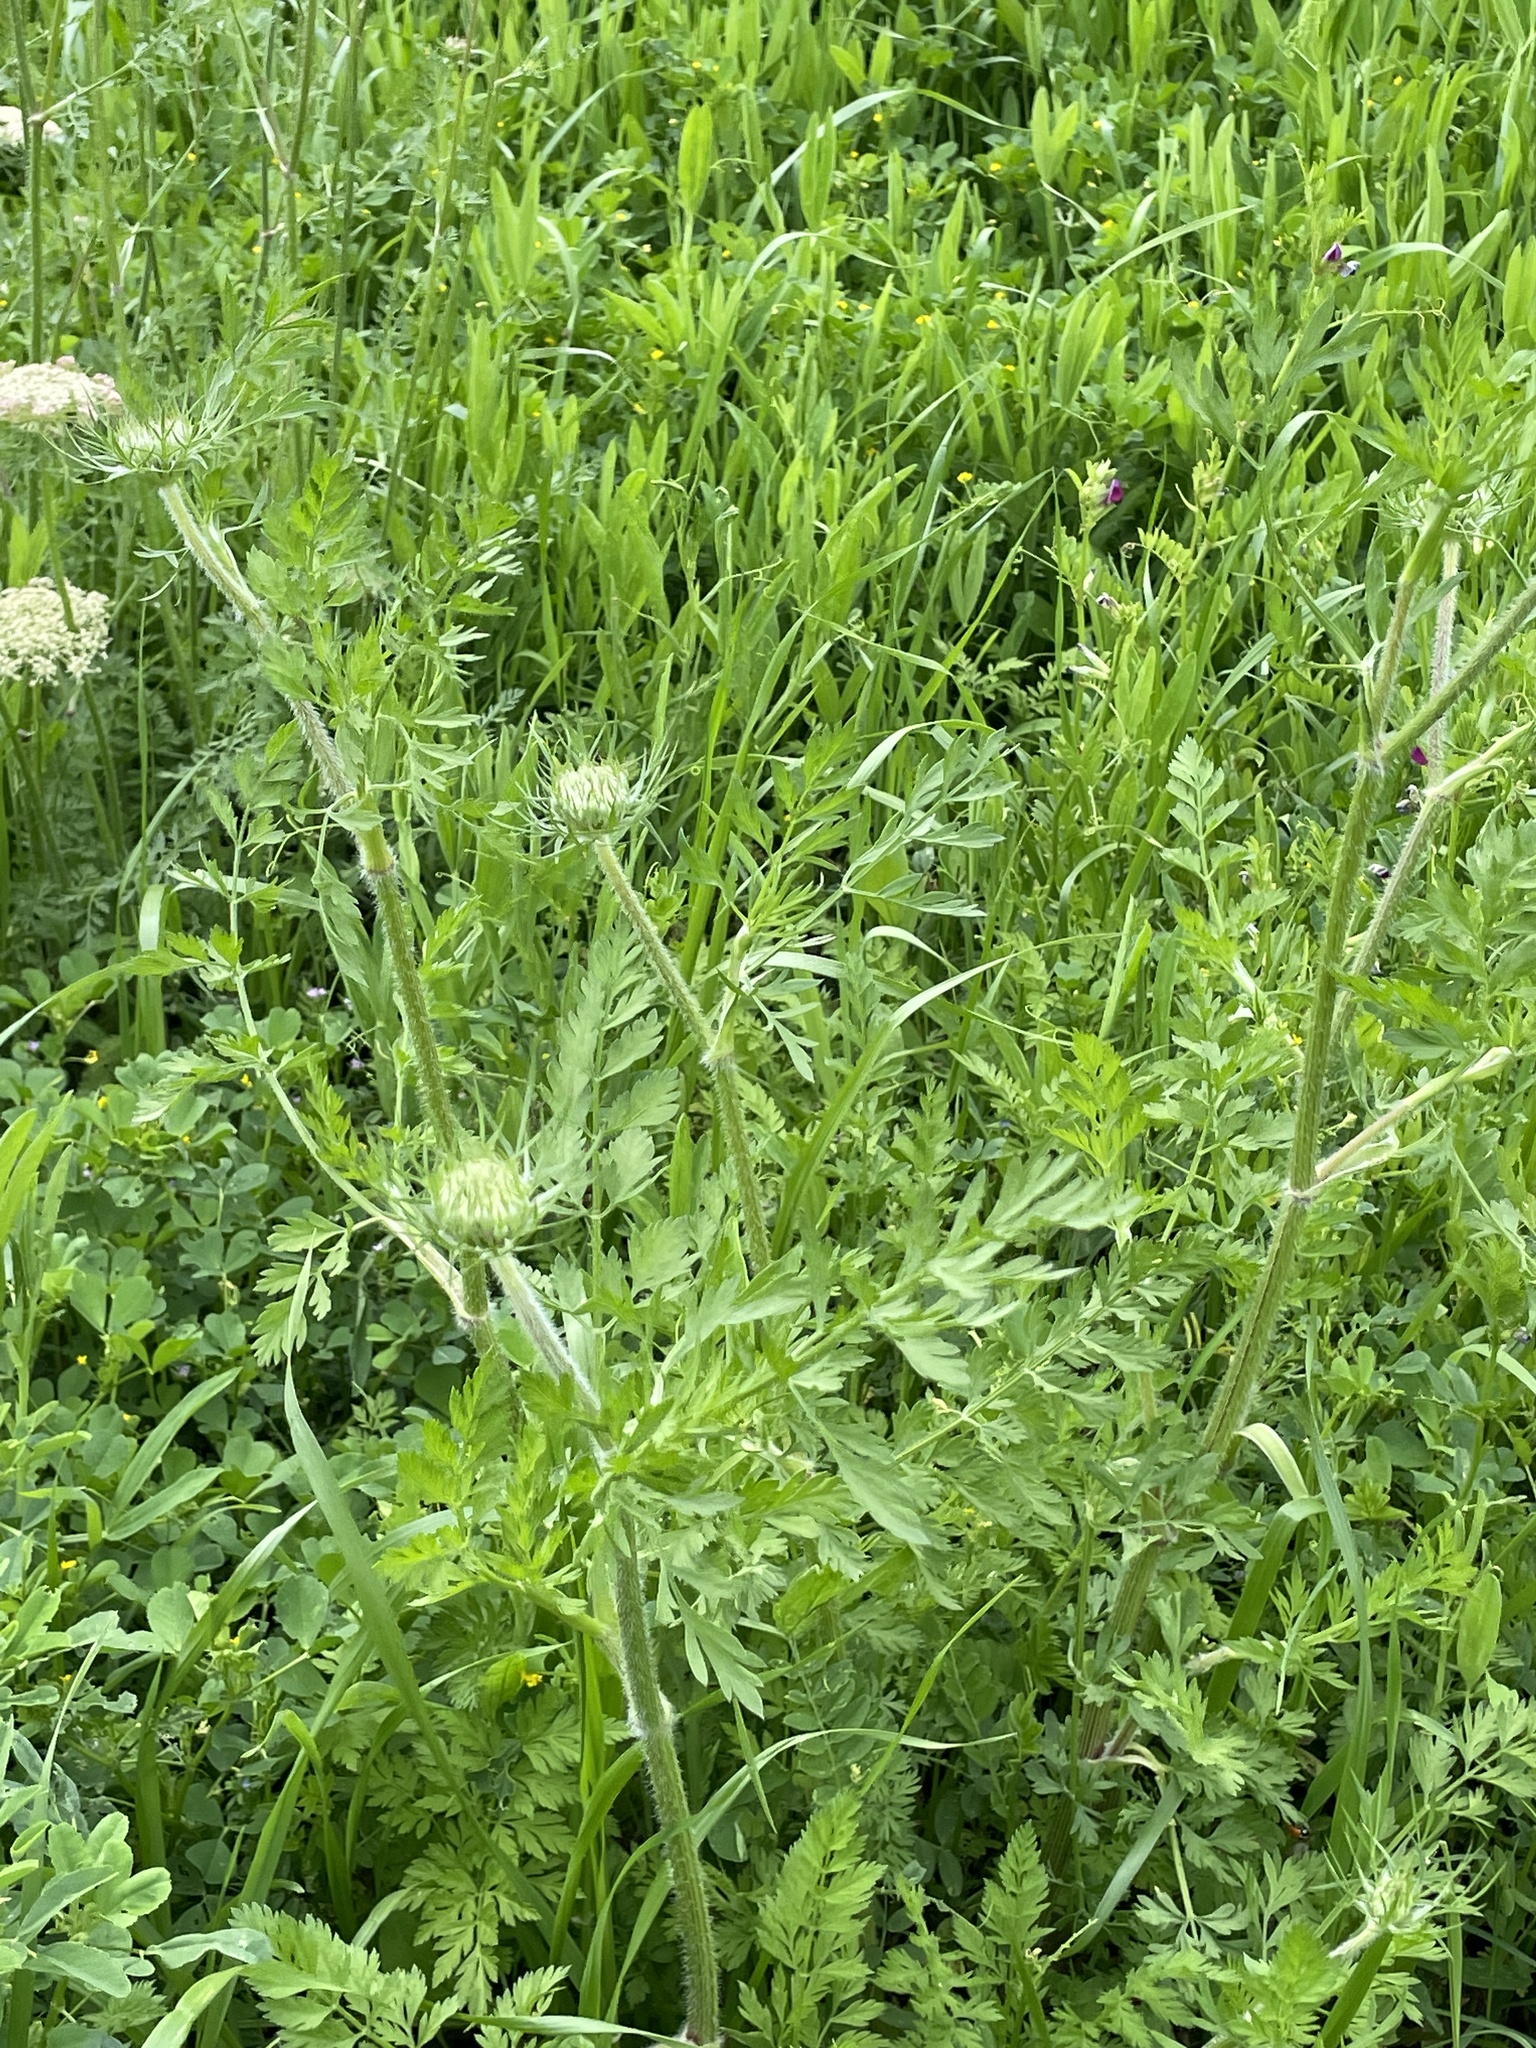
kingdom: Plantae
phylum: Tracheophyta
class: Magnoliopsida
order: Apiales
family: Apiaceae
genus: Daucus
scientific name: Daucus carota
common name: Wild carrot
